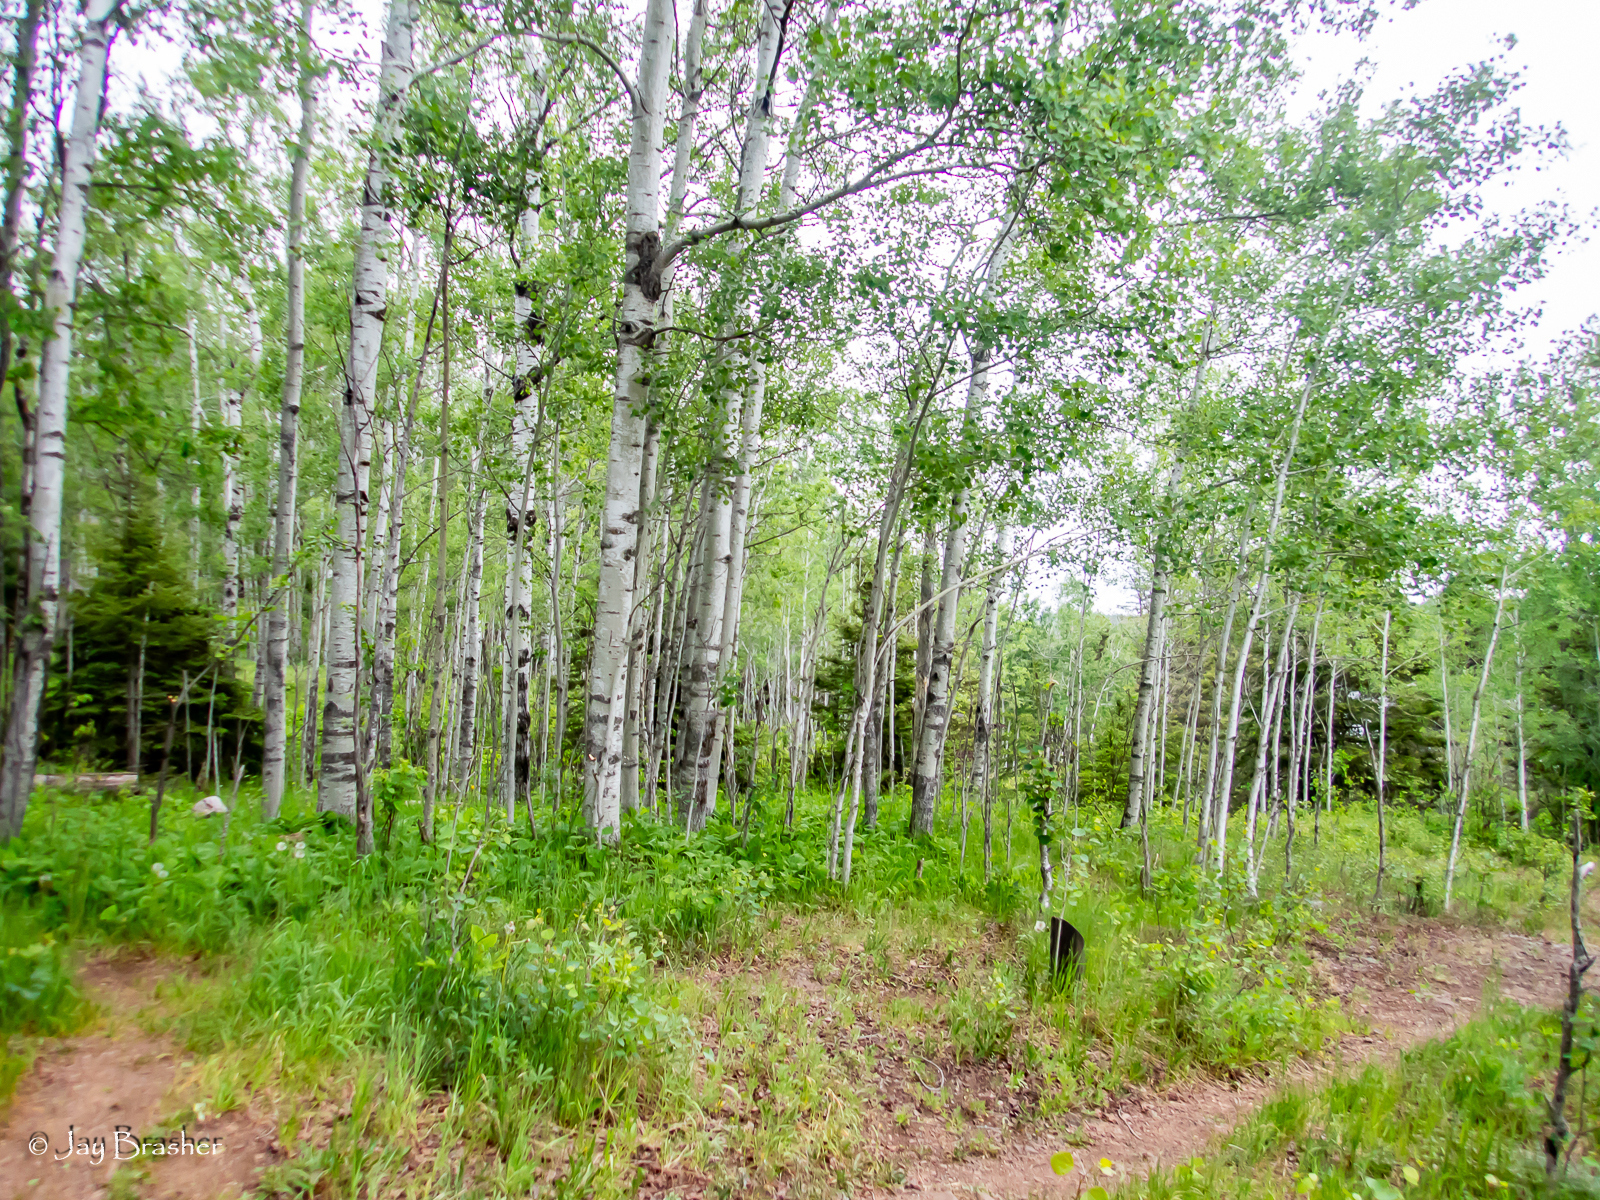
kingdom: Plantae
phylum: Tracheophyta
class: Magnoliopsida
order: Malpighiales
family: Salicaceae
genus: Populus
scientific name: Populus tremuloides
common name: Quaking aspen
